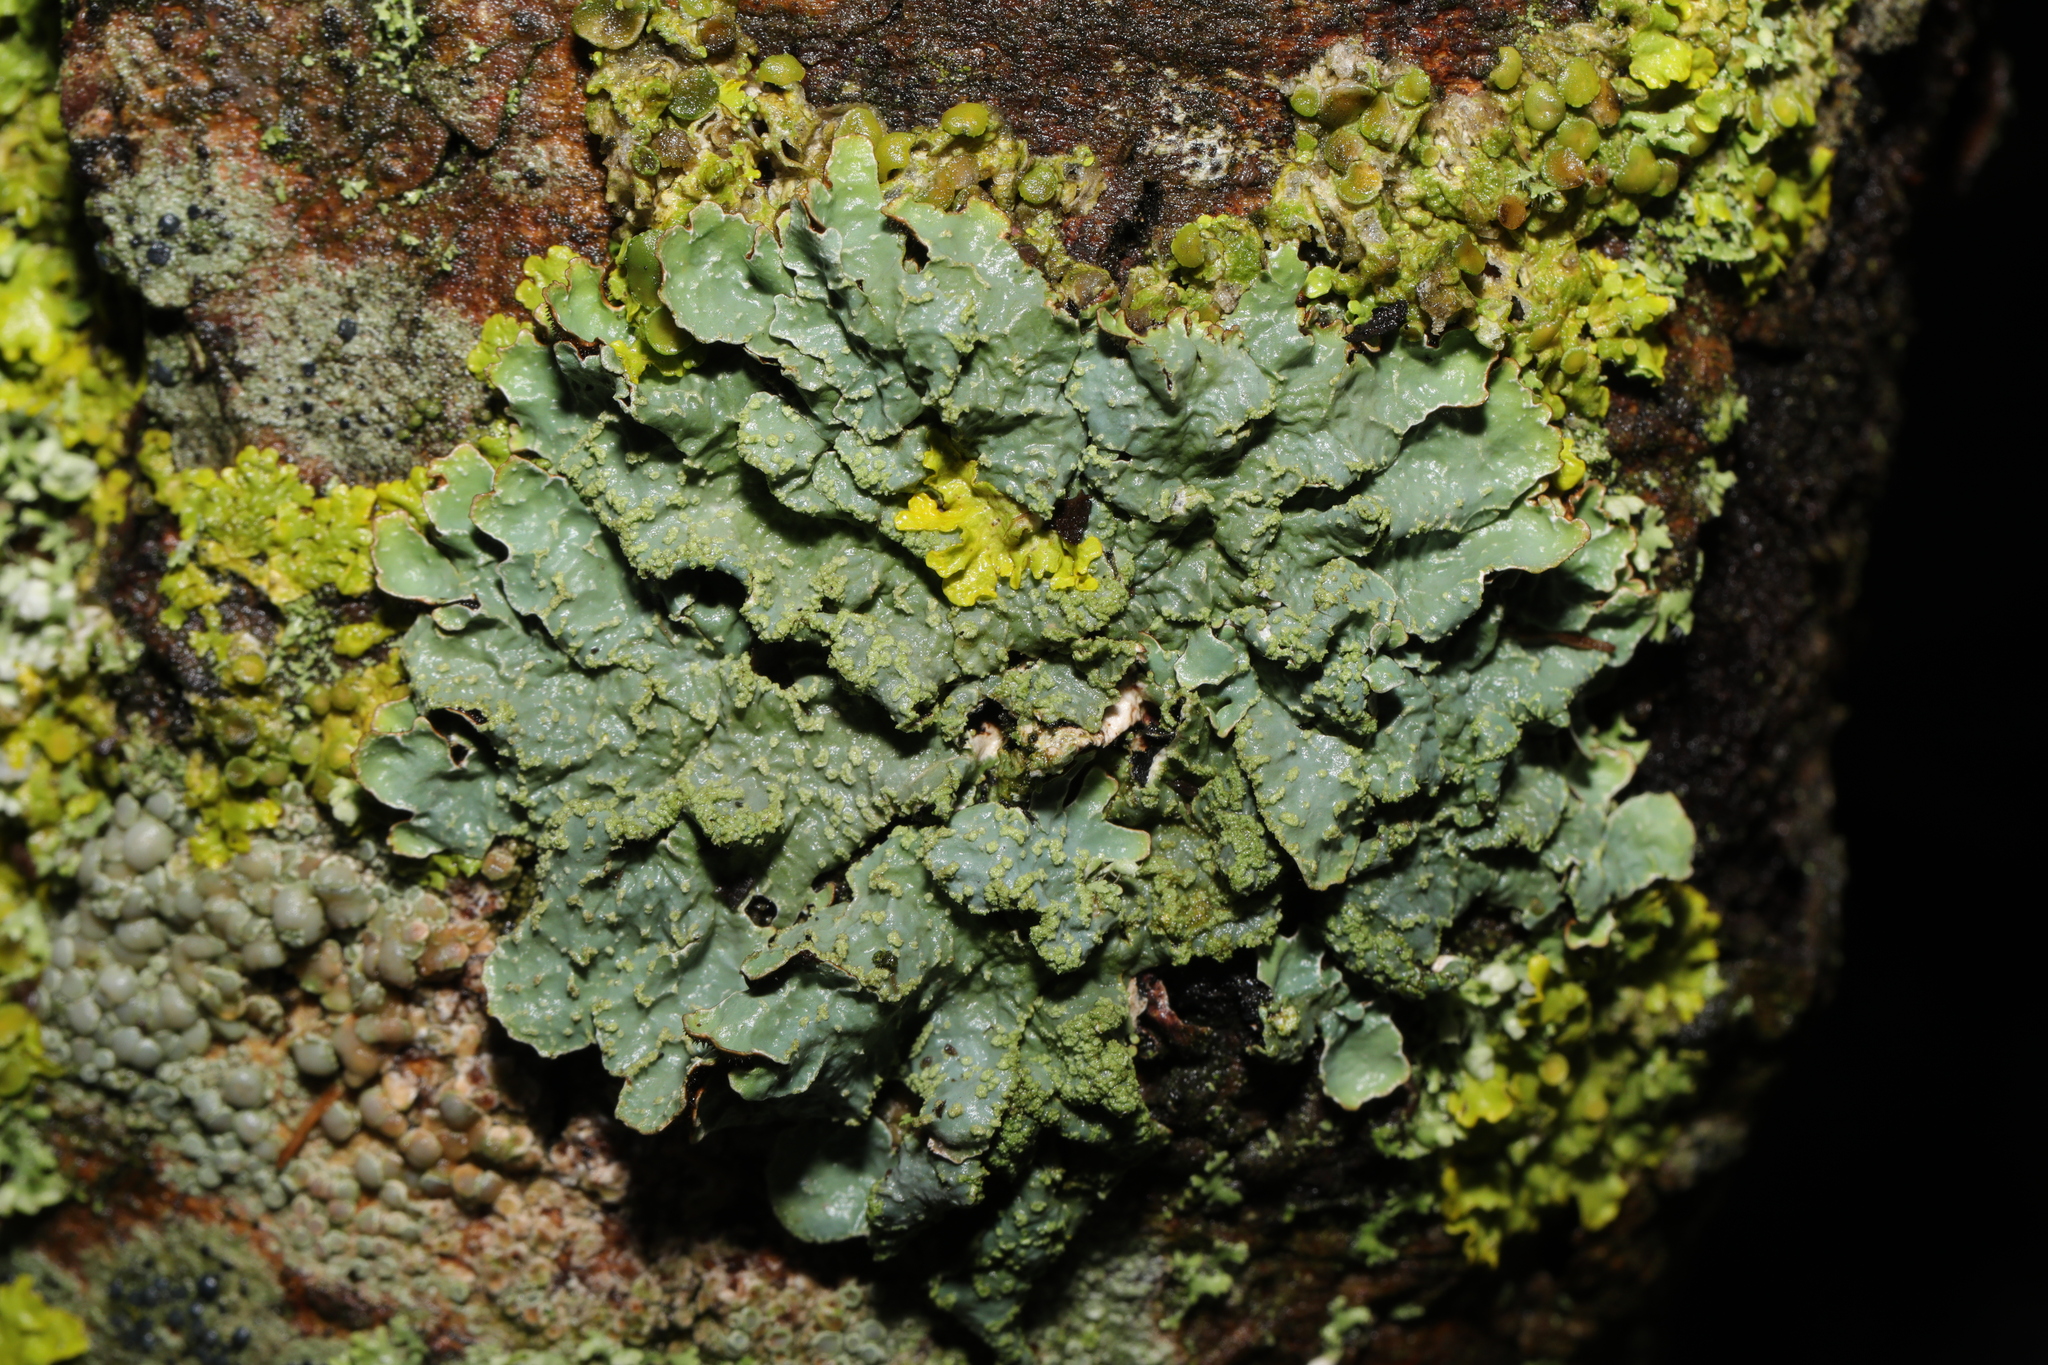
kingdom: Fungi
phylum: Ascomycota
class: Lecanoromycetes
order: Lecanorales
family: Parmeliaceae
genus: Parmelia
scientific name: Parmelia sulcata
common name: Netted shield lichen
